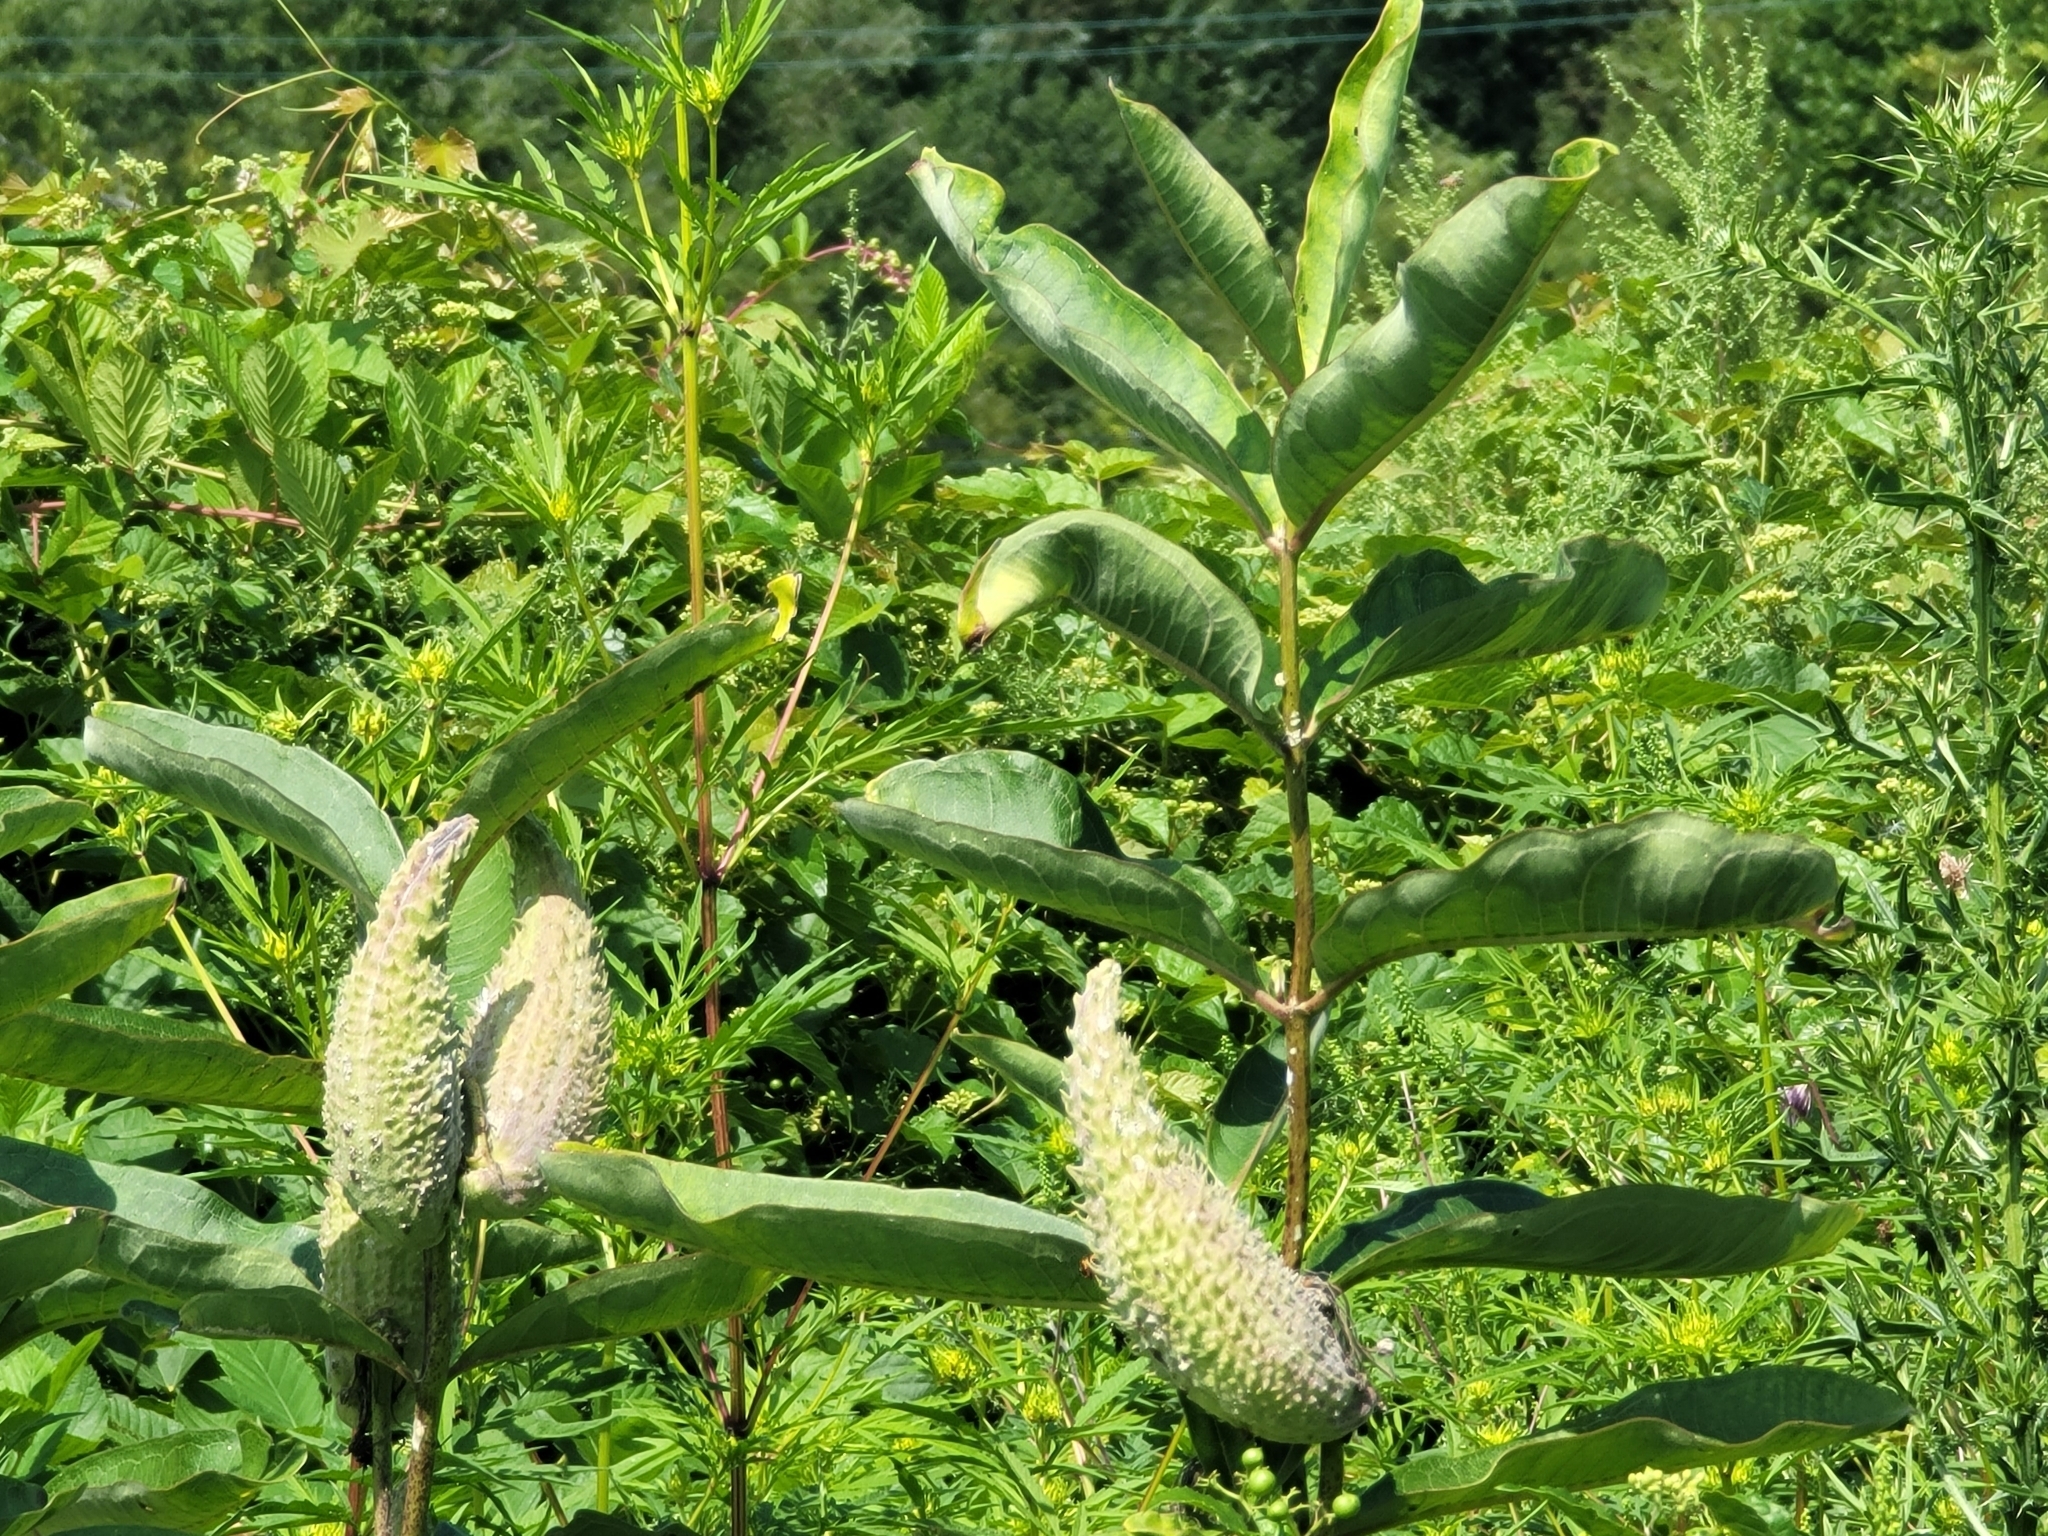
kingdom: Plantae
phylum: Tracheophyta
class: Magnoliopsida
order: Gentianales
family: Apocynaceae
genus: Asclepias
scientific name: Asclepias syriaca
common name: Common milkweed
